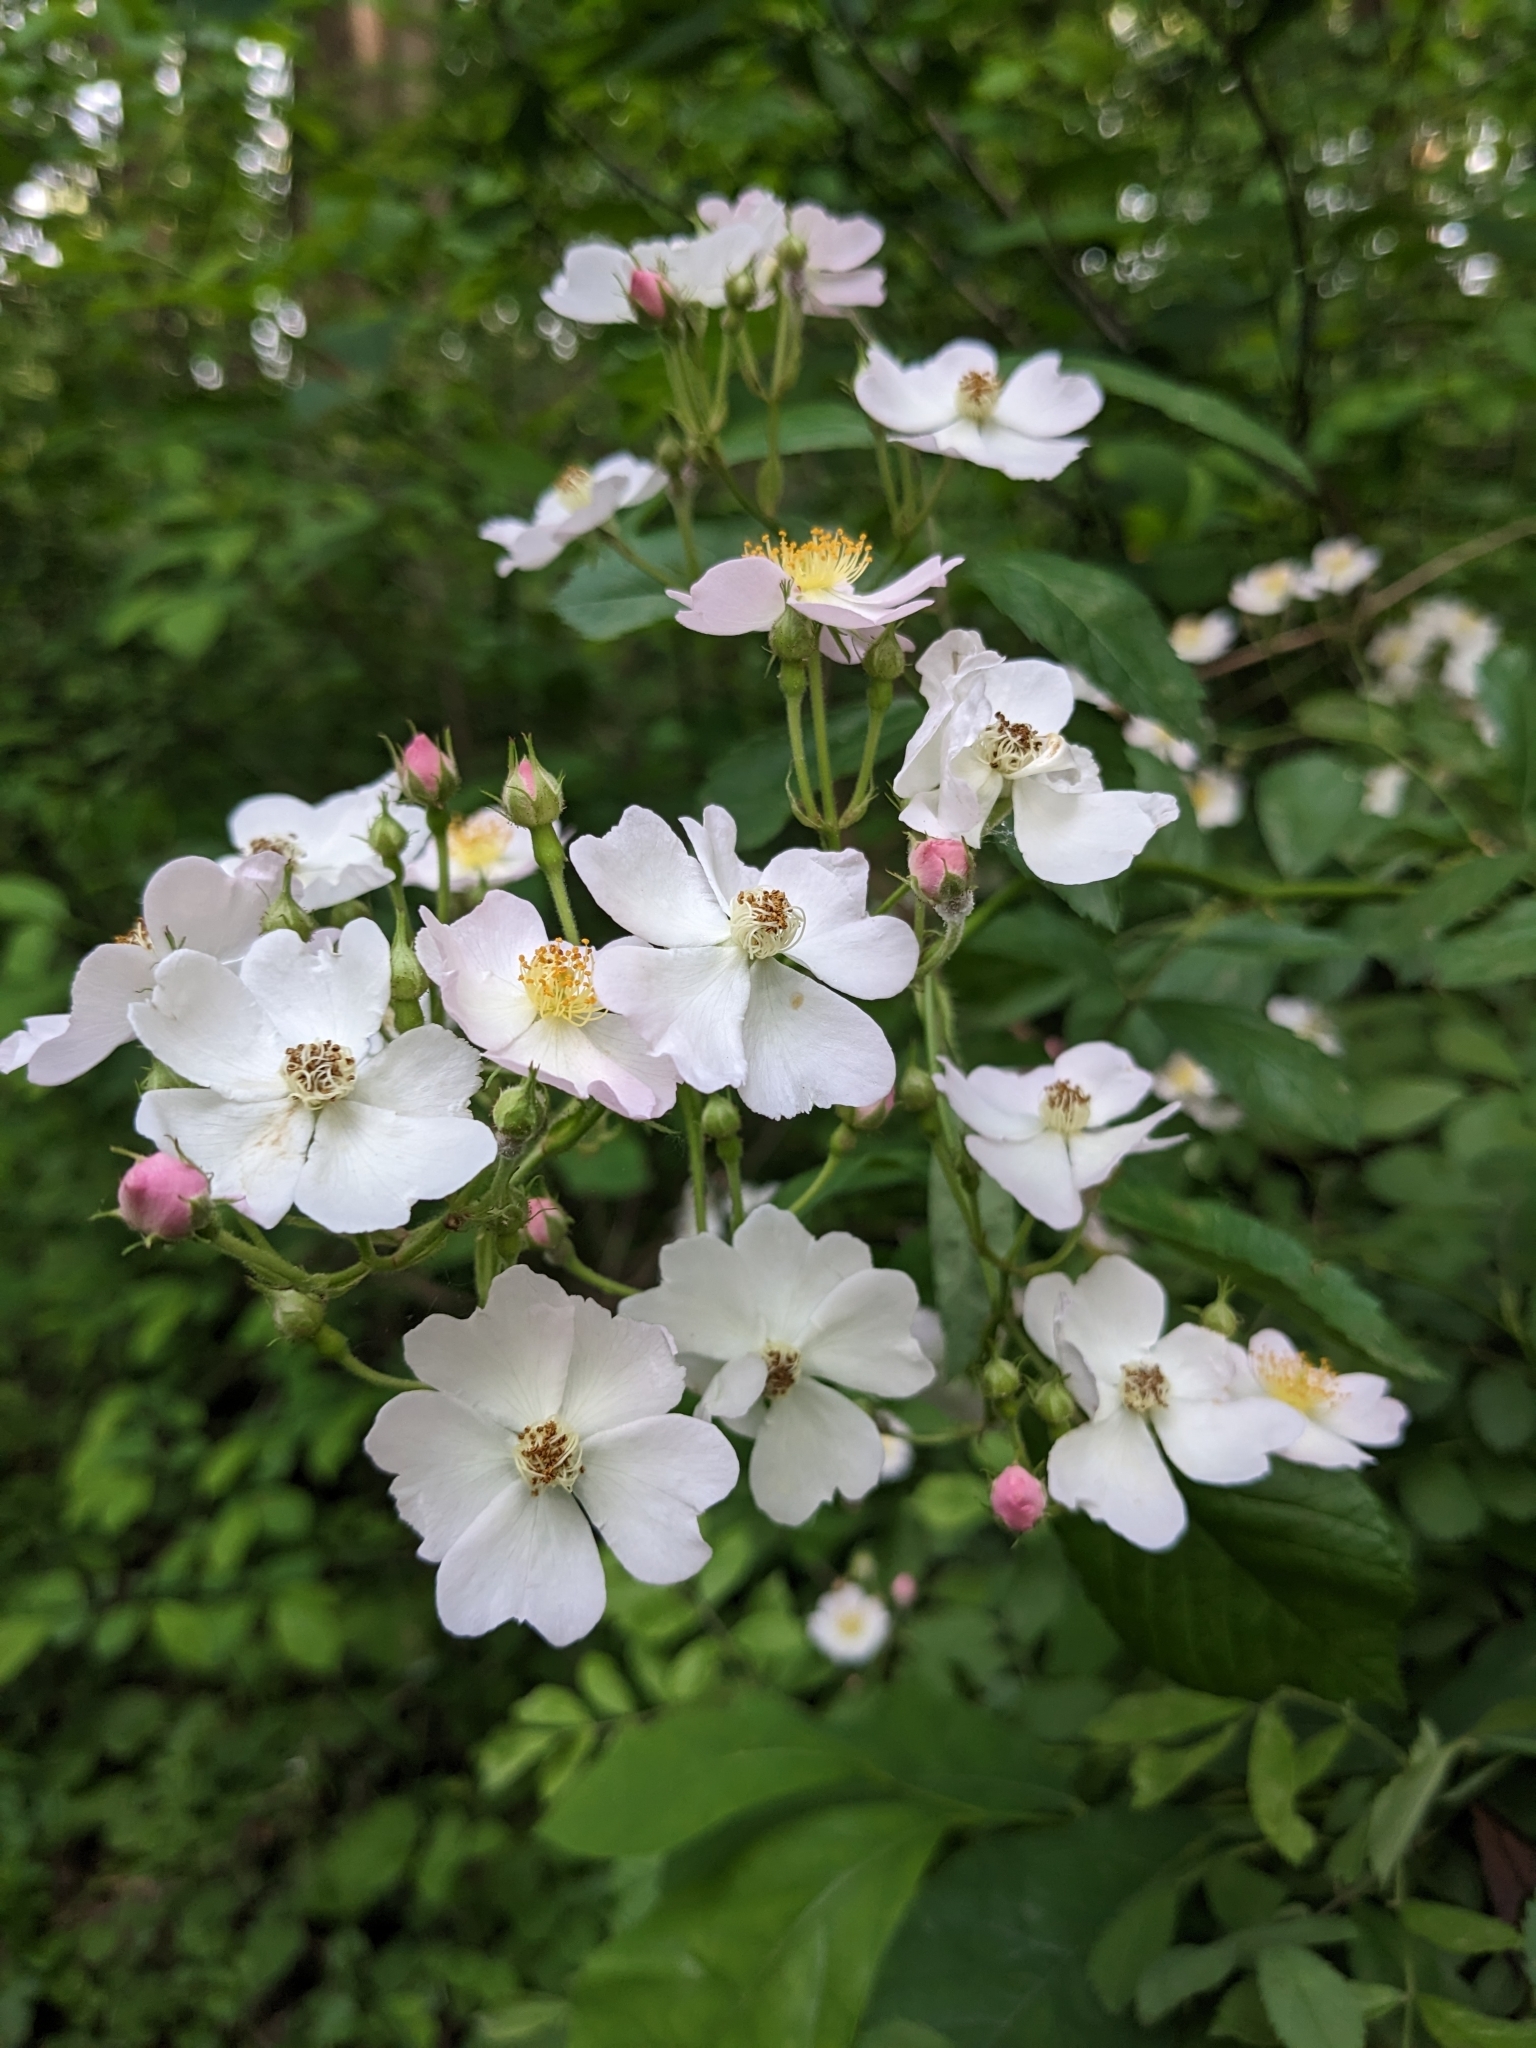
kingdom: Plantae
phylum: Tracheophyta
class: Magnoliopsida
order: Rosales
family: Rosaceae
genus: Rosa
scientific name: Rosa multiflora
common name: Multiflora rose
